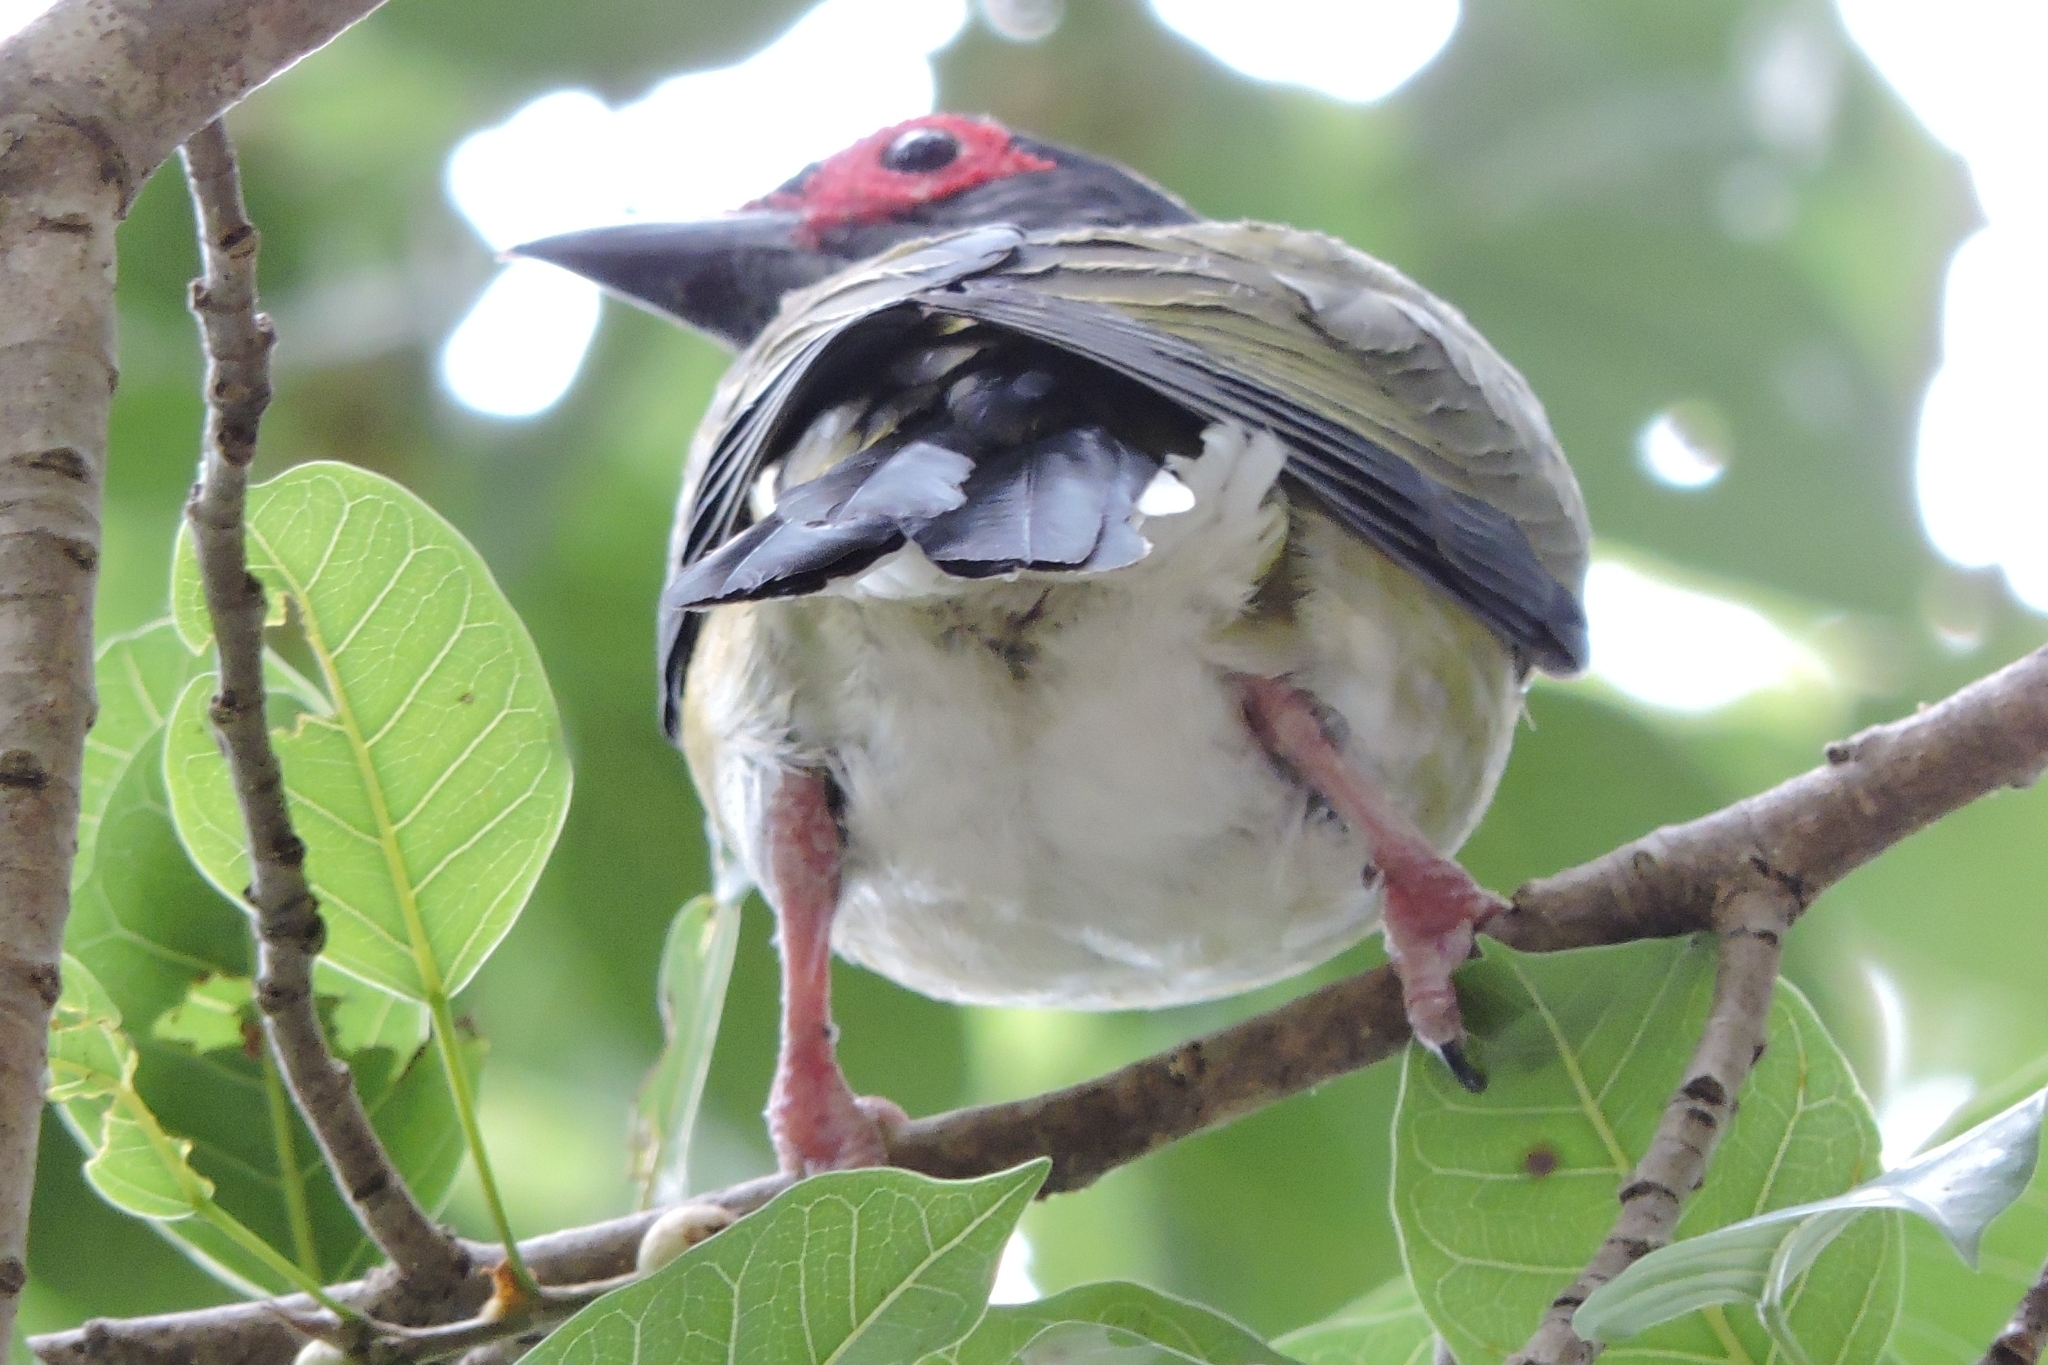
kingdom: Animalia
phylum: Chordata
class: Aves
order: Passeriformes
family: Oriolidae
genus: Sphecotheres
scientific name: Sphecotheres vieilloti
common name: Australasian figbird
